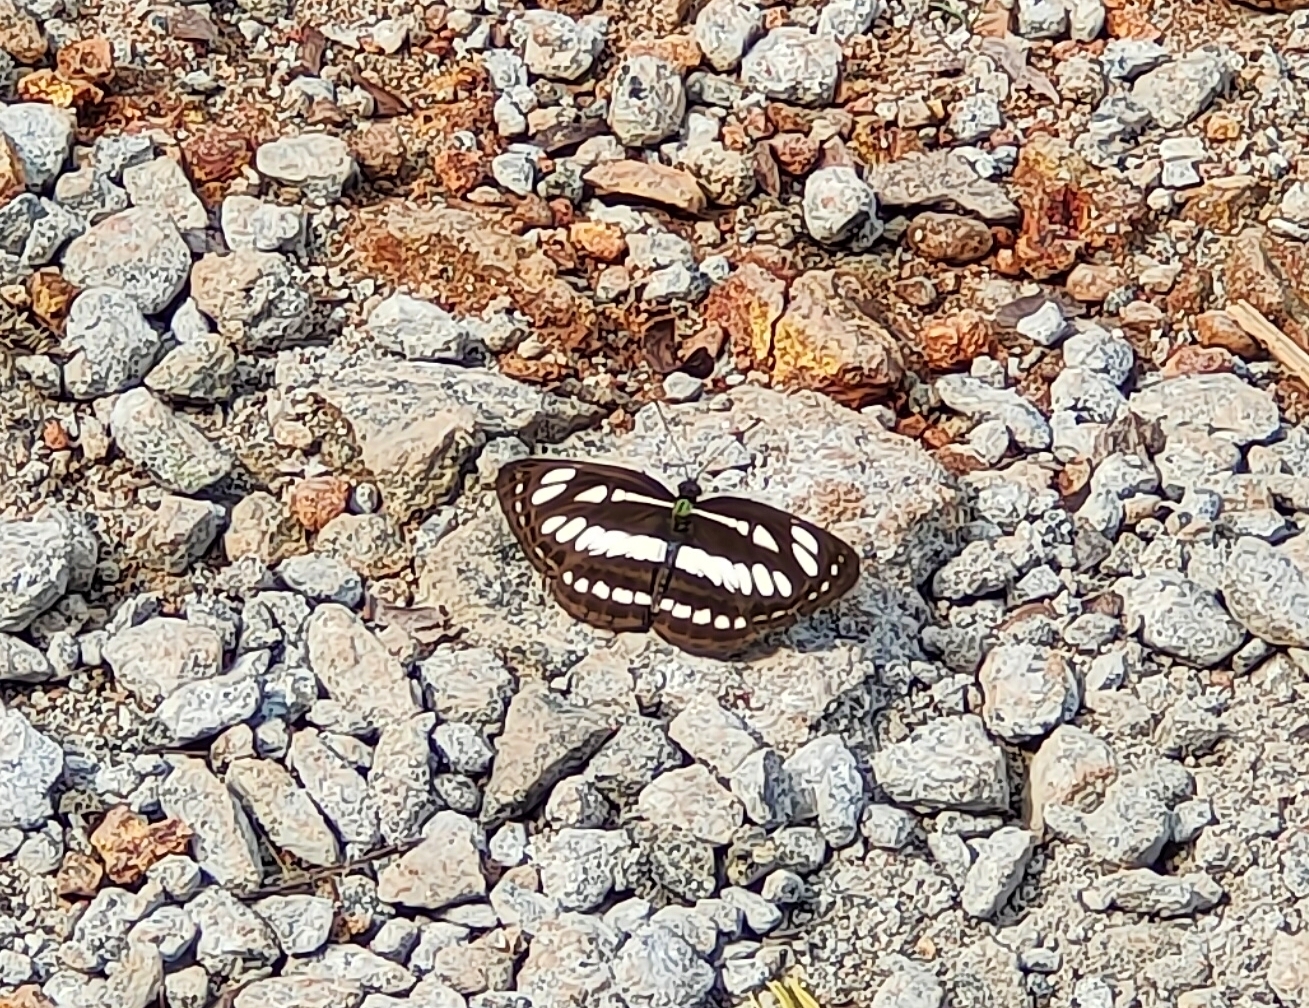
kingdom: Animalia
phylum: Arthropoda
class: Insecta
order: Lepidoptera
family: Nymphalidae
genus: Neptis
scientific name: Neptis hylas
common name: Common sailer
